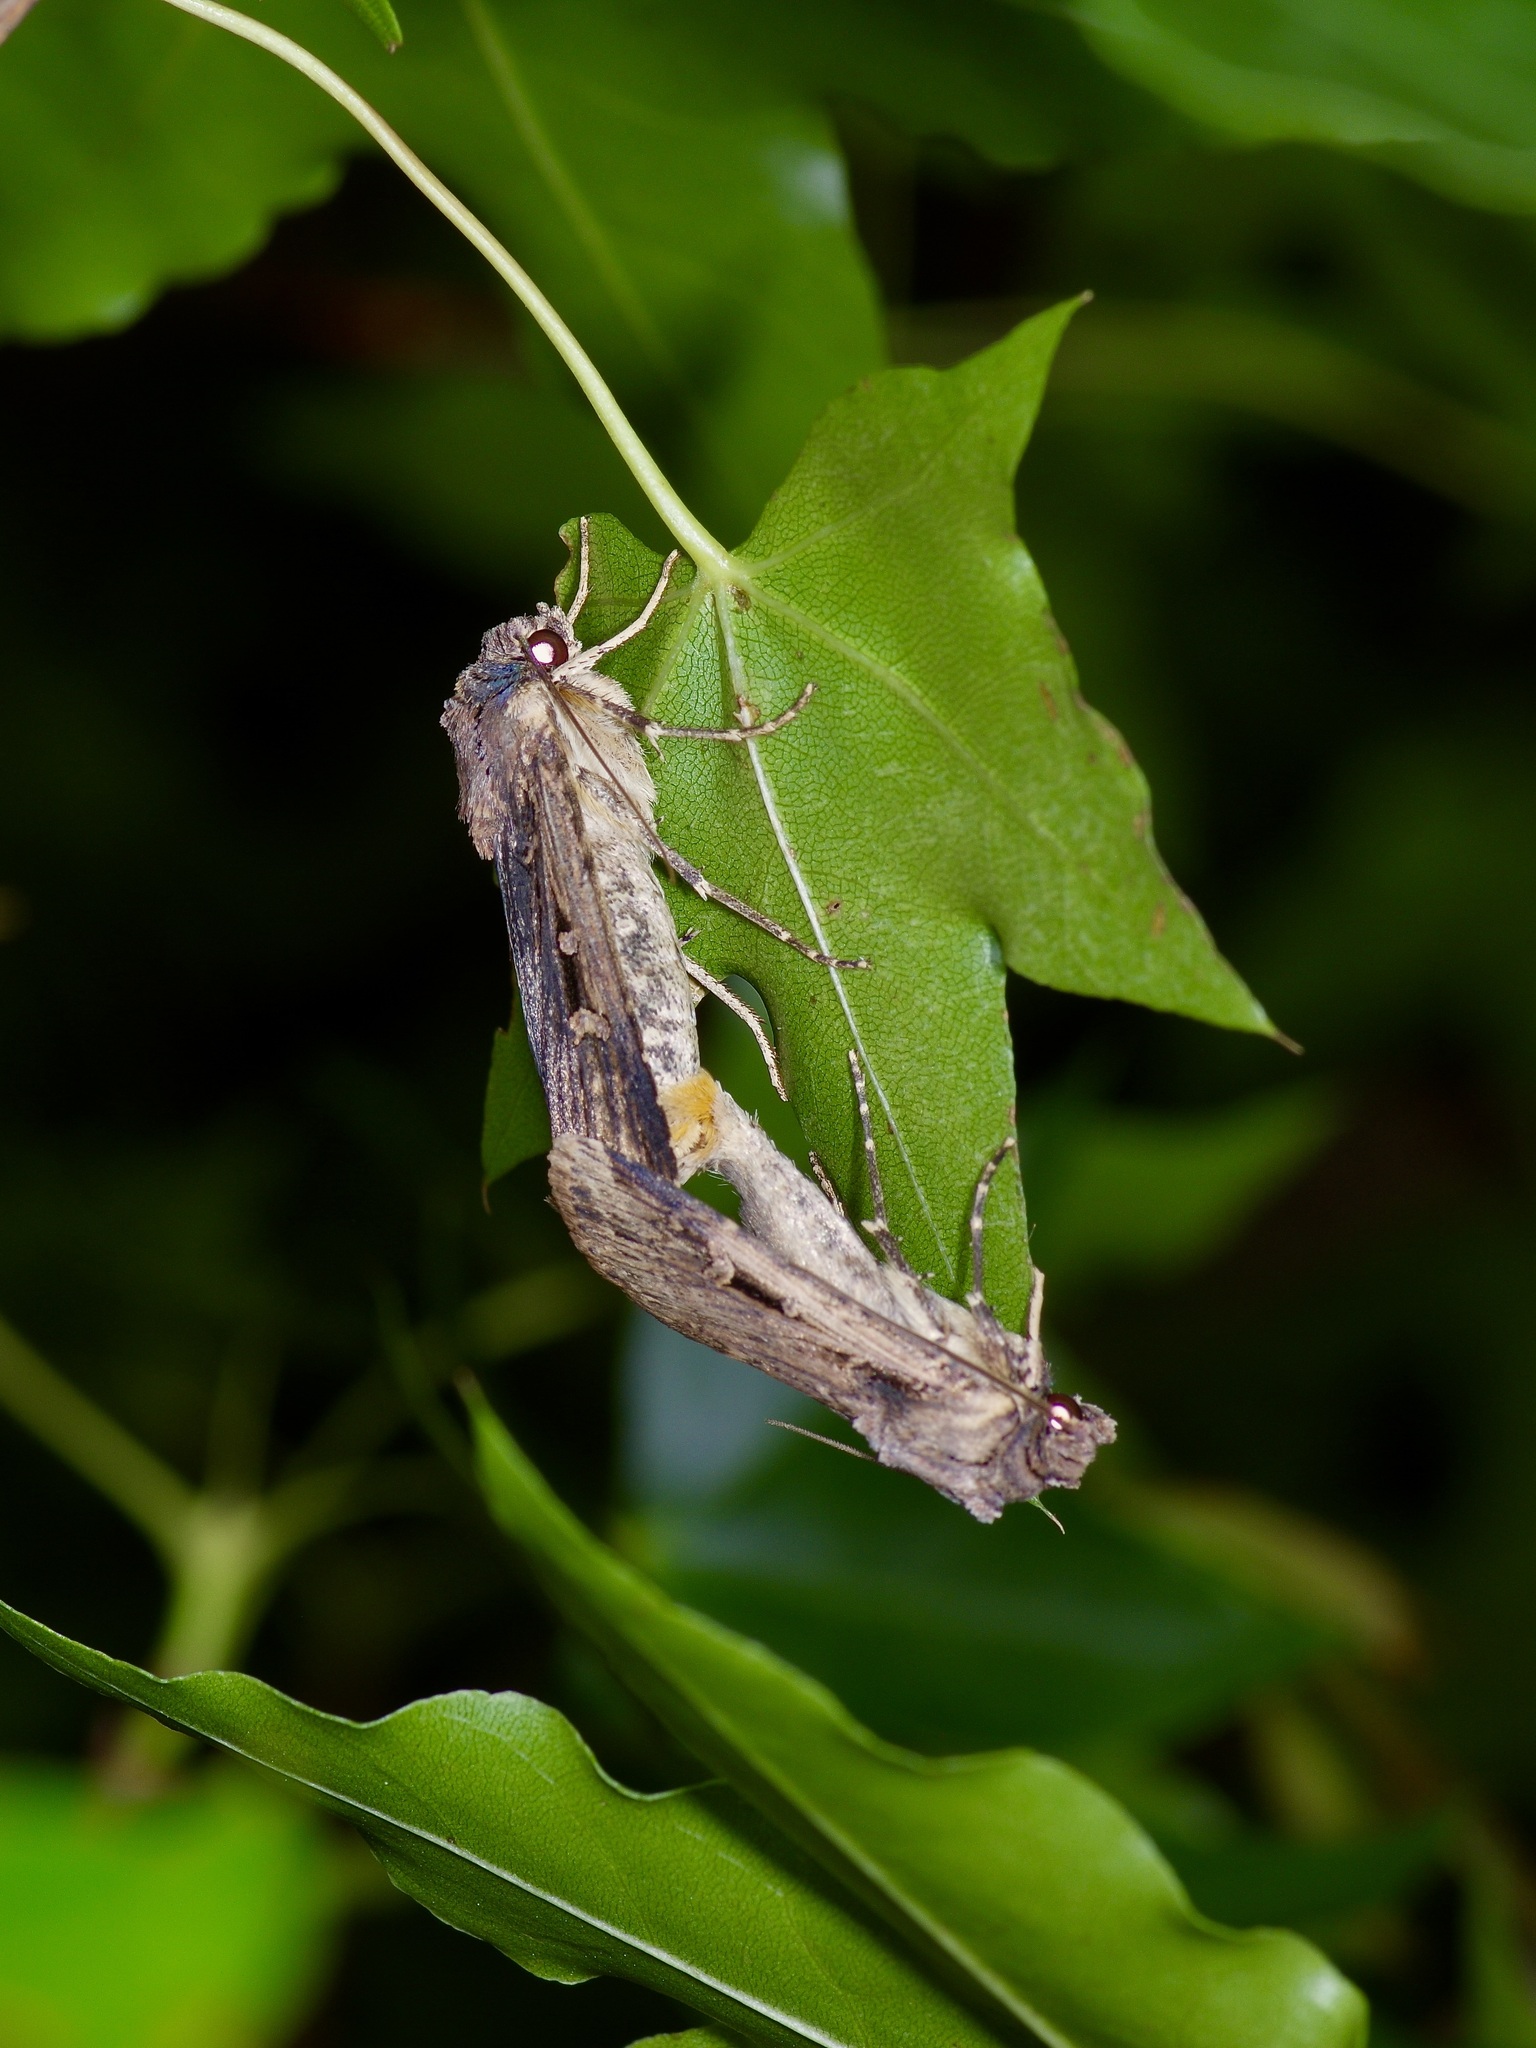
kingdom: Animalia
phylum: Arthropoda
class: Insecta
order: Lepidoptera
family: Noctuidae
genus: Feltia
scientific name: Feltia subterranea
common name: Granulate cutworm
